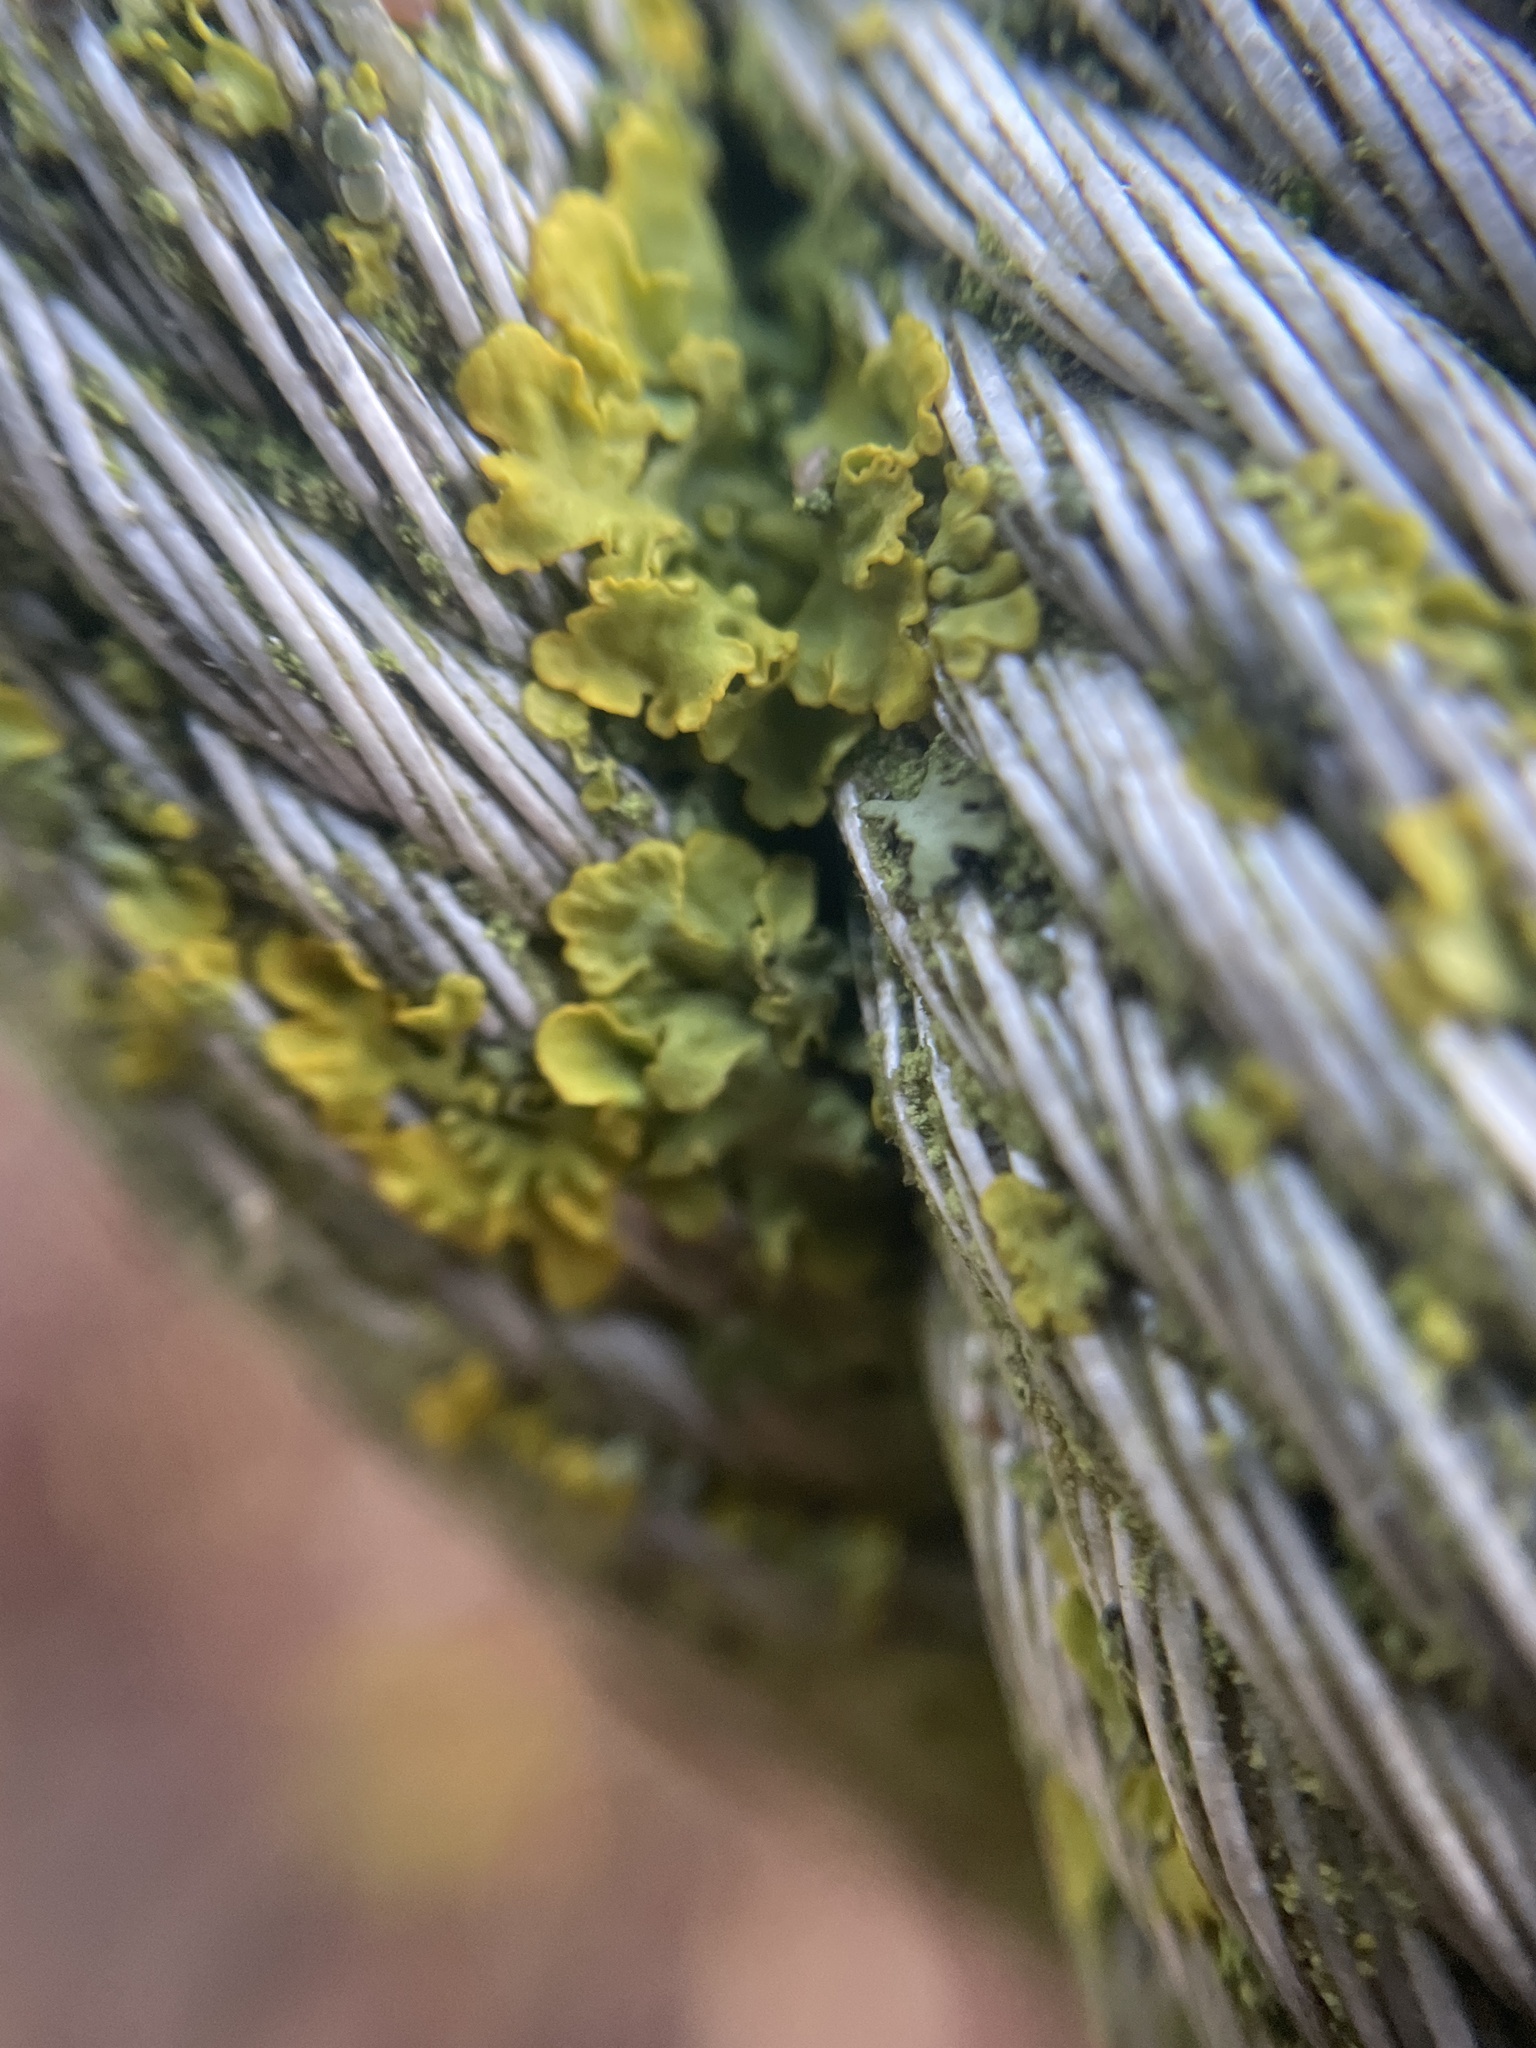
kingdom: Fungi
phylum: Ascomycota
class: Lecanoromycetes
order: Teloschistales
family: Teloschistaceae
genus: Xanthoria
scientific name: Xanthoria parietina
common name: Common orange lichen
